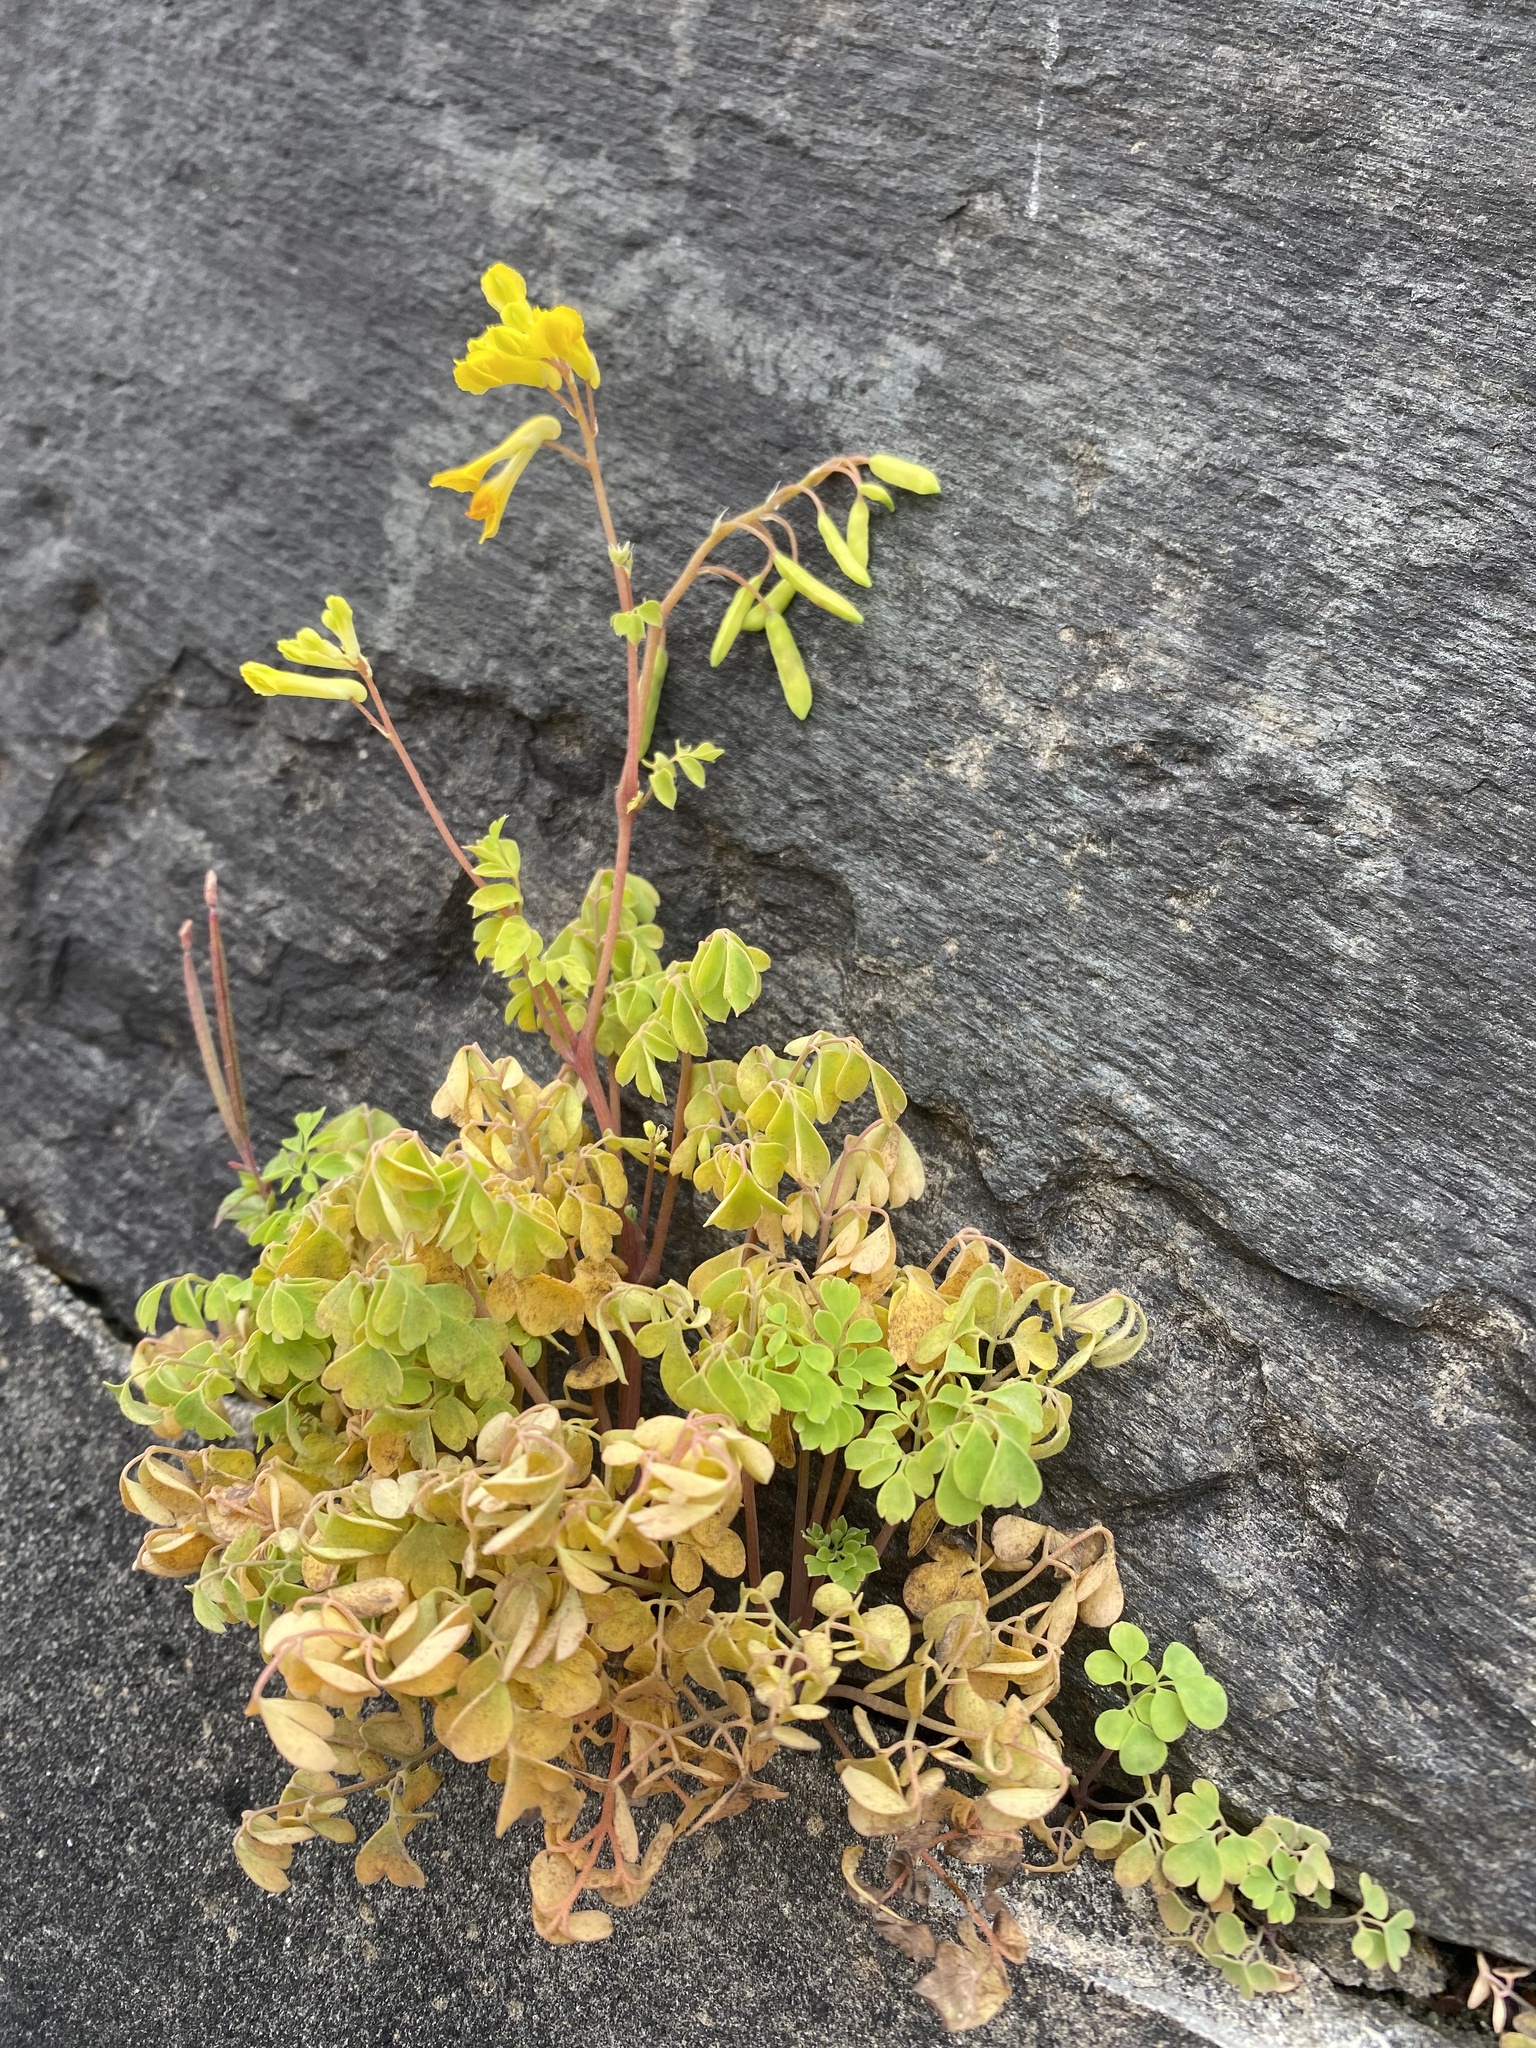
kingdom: Plantae
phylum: Tracheophyta
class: Magnoliopsida
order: Ranunculales
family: Papaveraceae
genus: Pseudofumaria
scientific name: Pseudofumaria lutea
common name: Yellow corydalis
